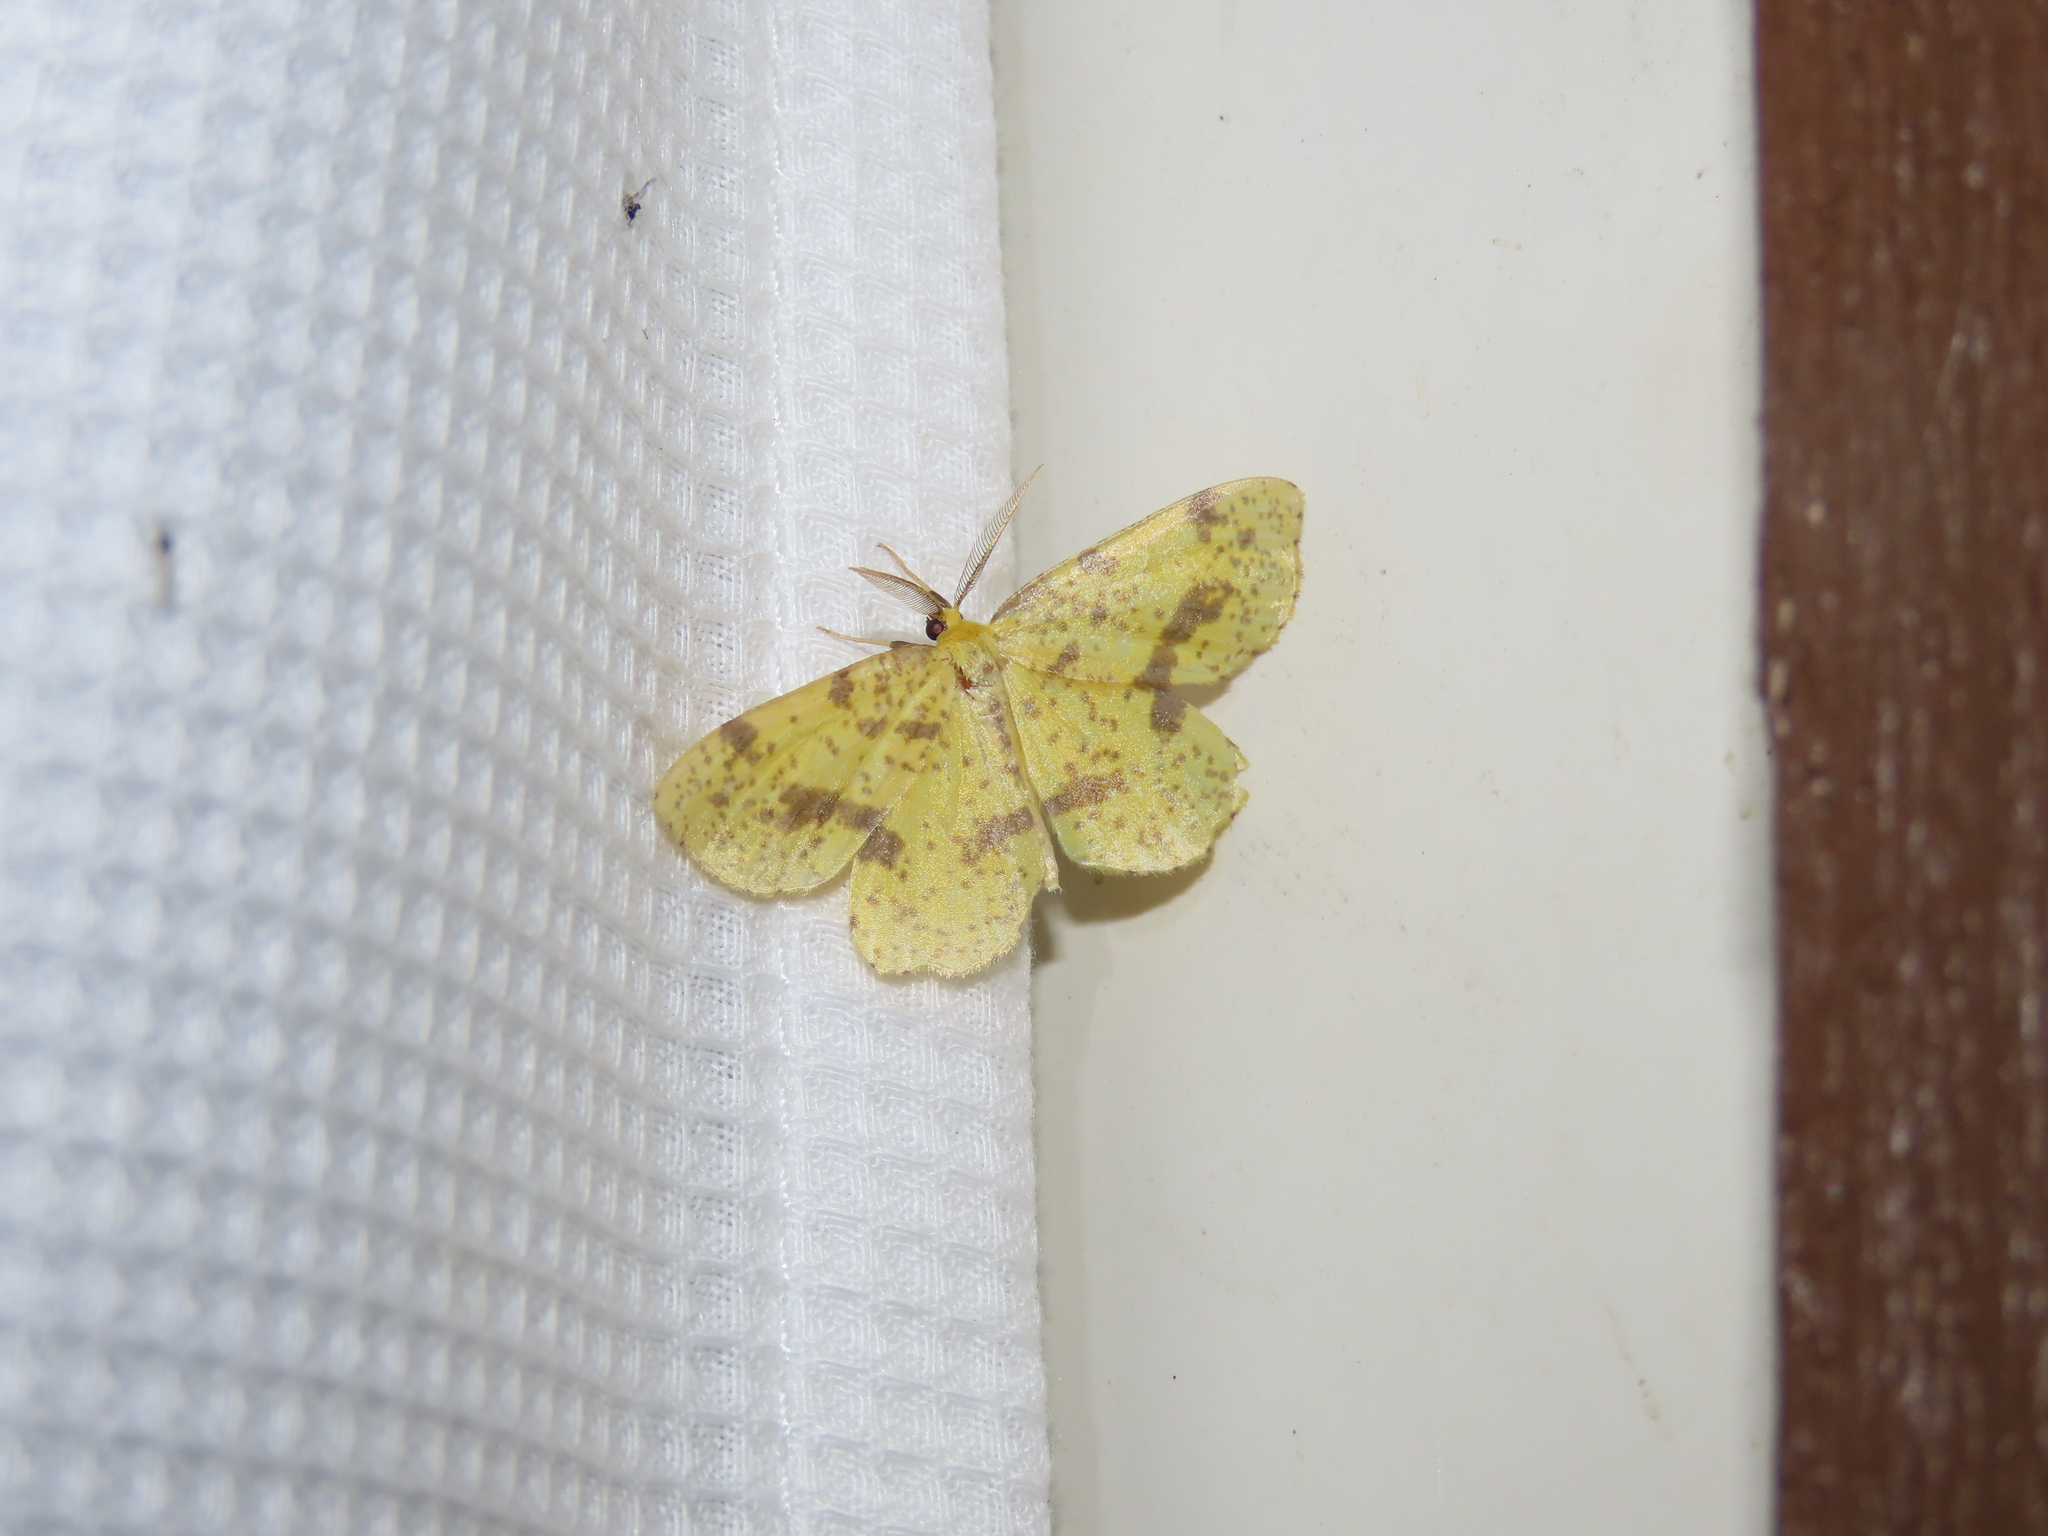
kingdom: Animalia
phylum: Arthropoda
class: Insecta
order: Lepidoptera
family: Geometridae
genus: Xanthotype
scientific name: Xanthotype
